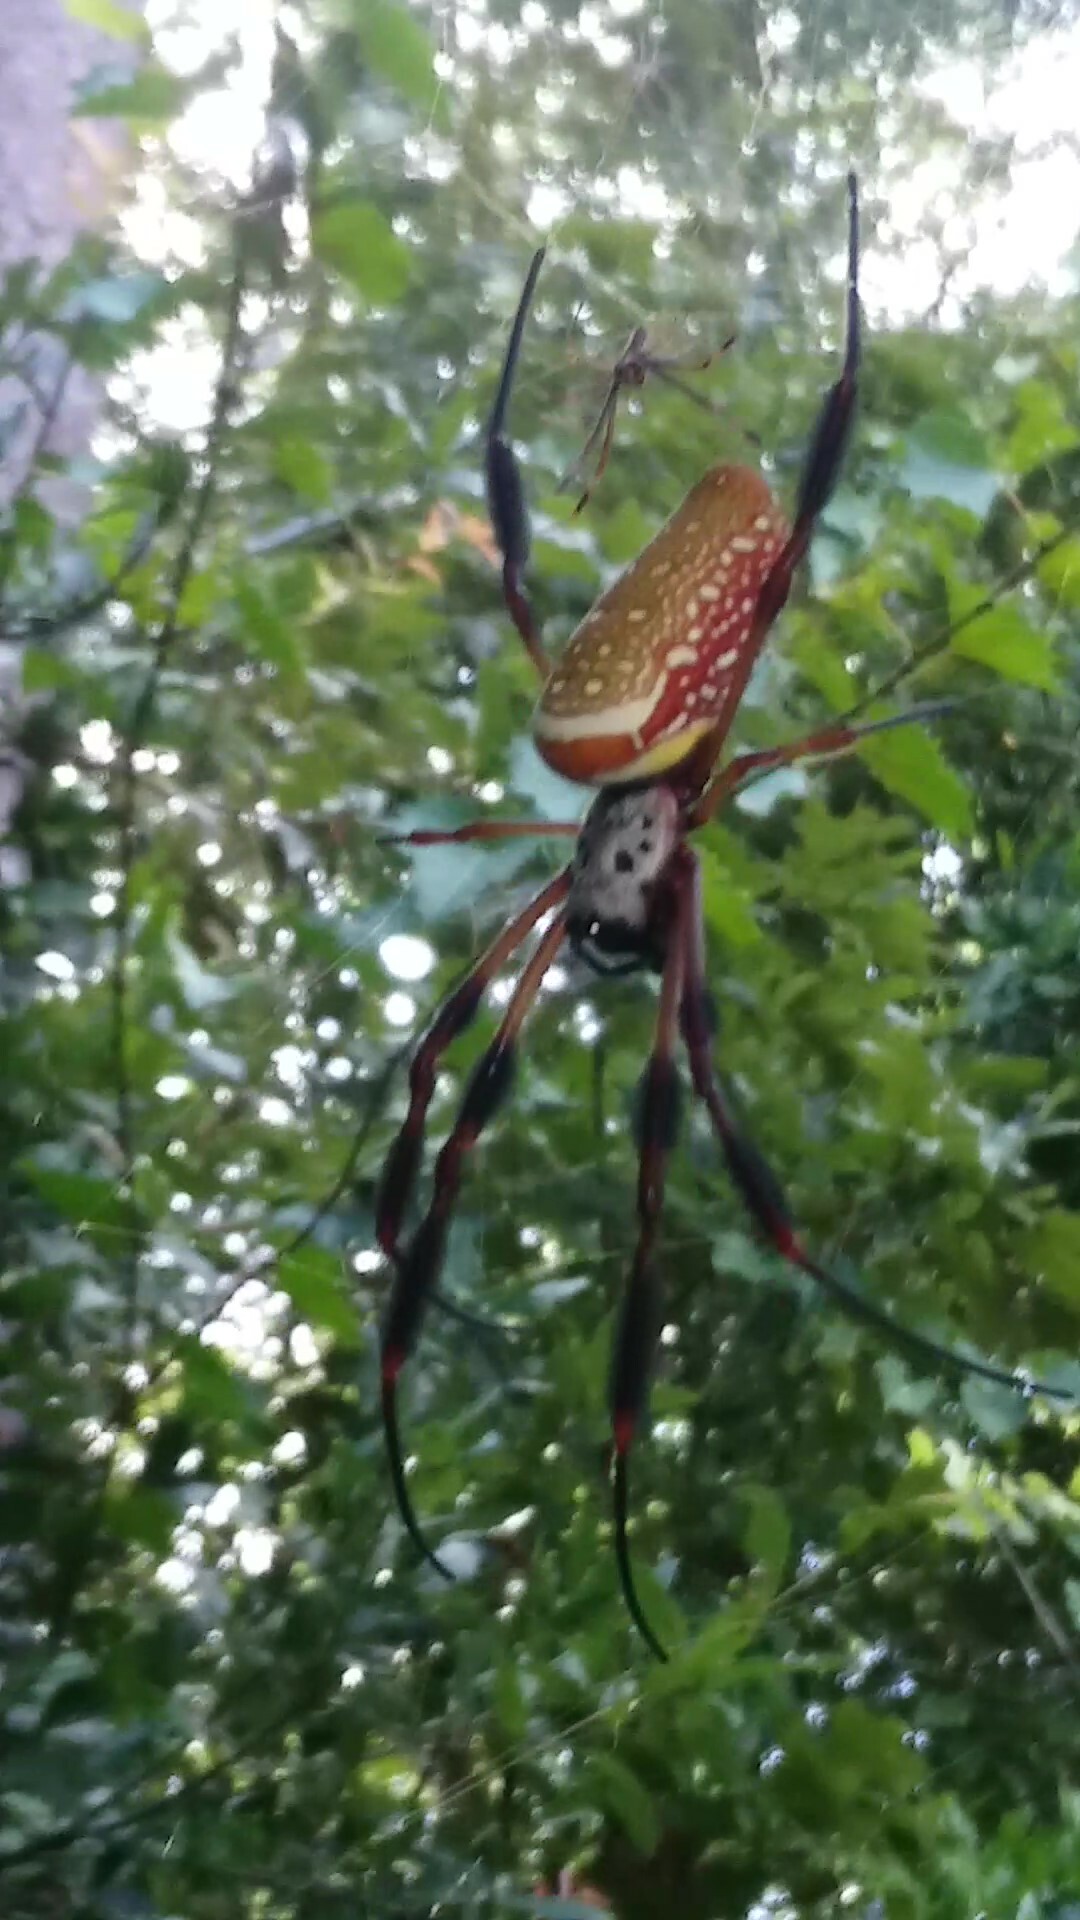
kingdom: Animalia
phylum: Arthropoda
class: Arachnida
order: Araneae
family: Araneidae
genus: Trichonephila
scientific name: Trichonephila clavipes
